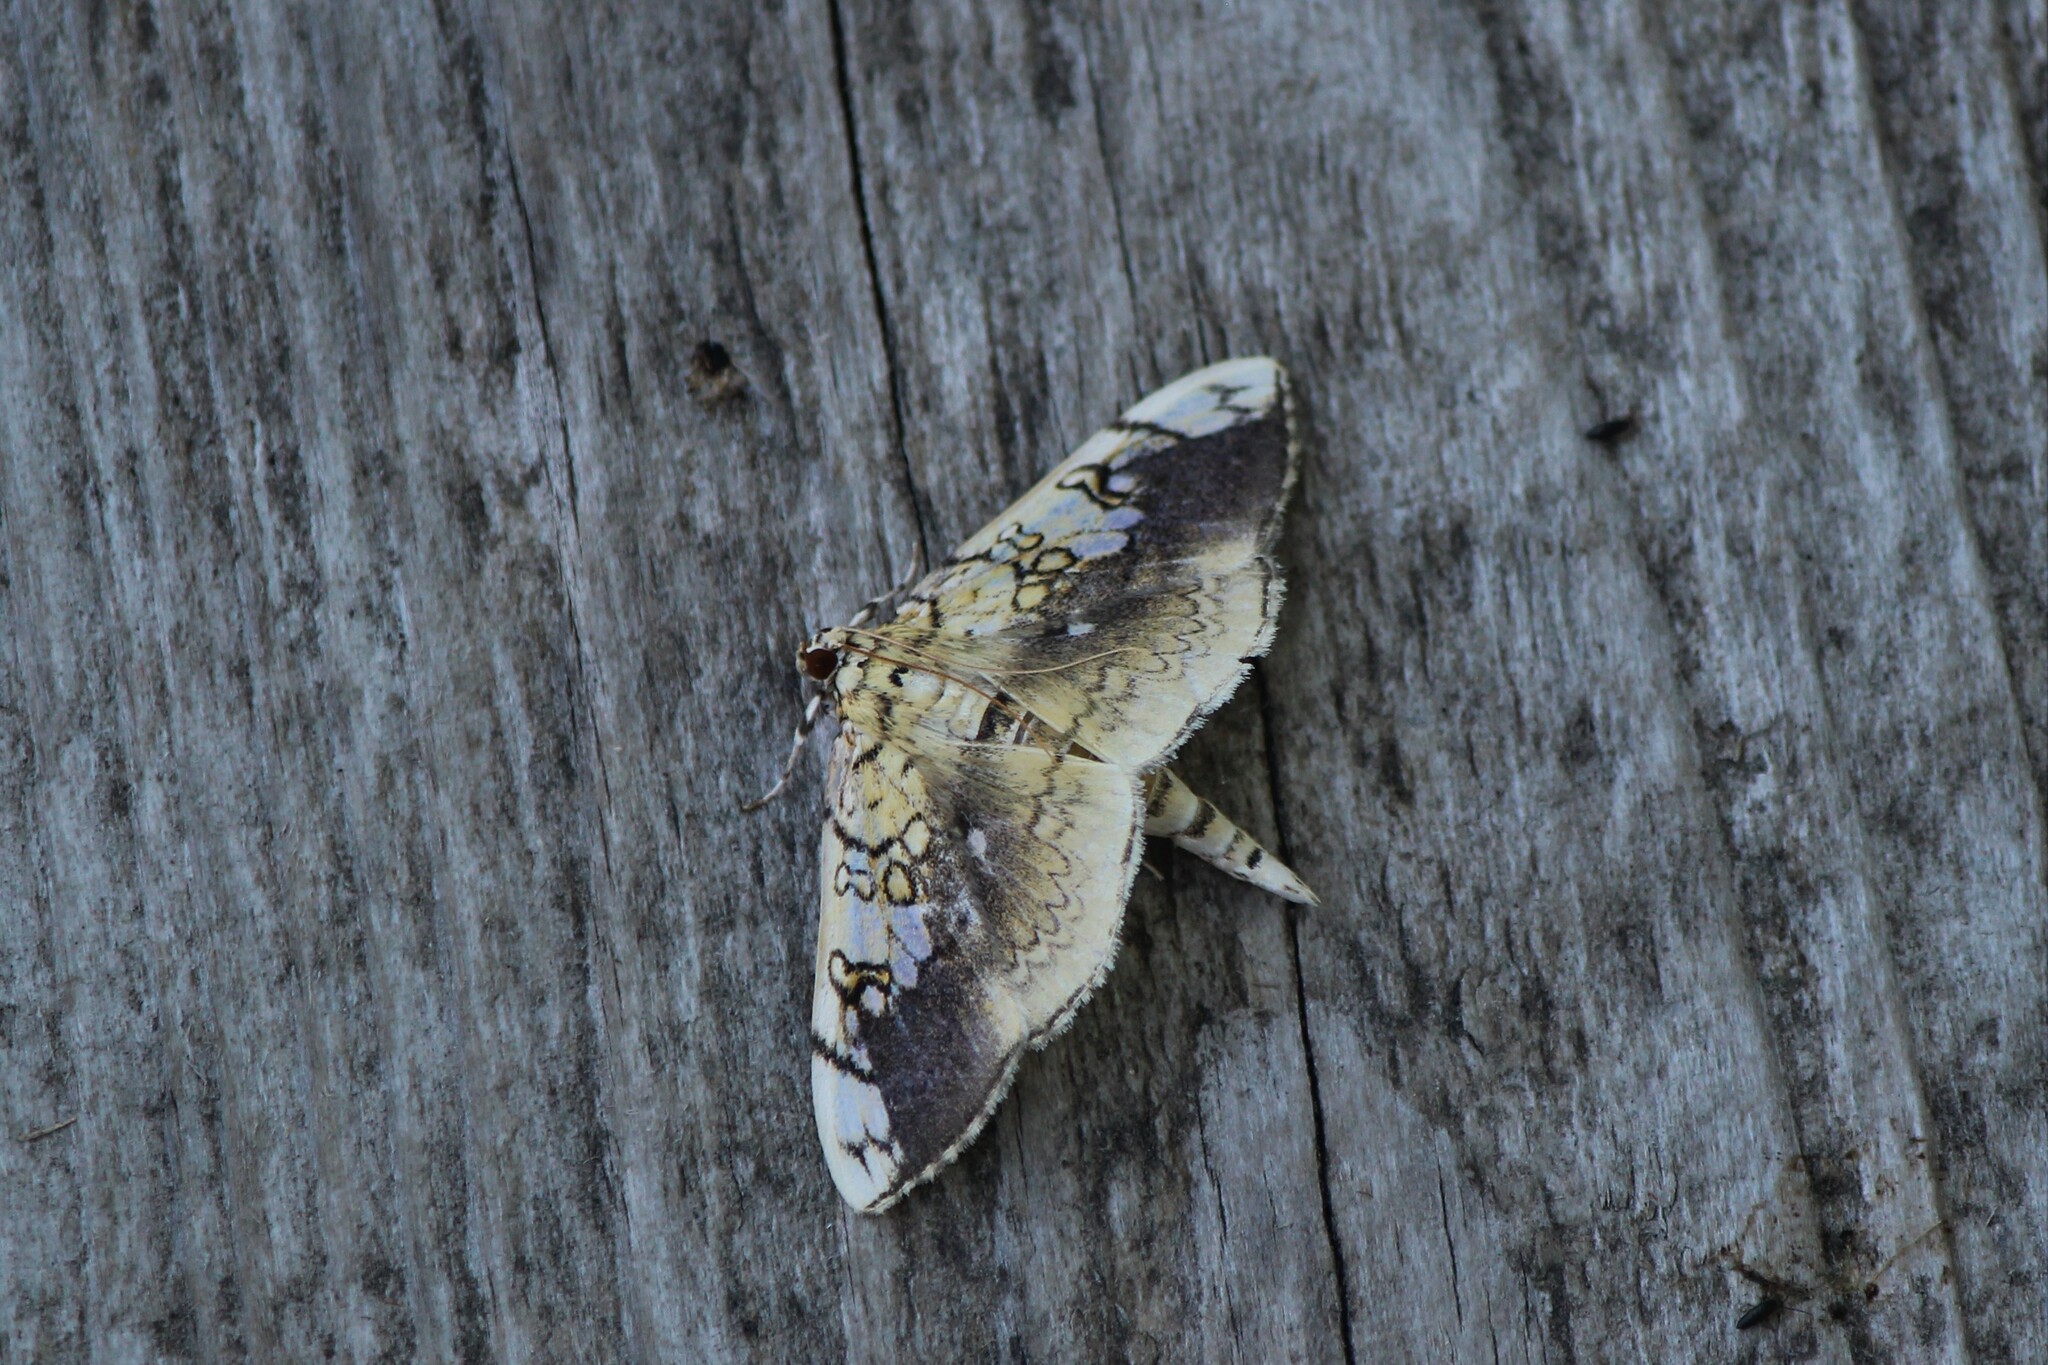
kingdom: Animalia
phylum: Arthropoda
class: Insecta
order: Lepidoptera
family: Crambidae
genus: Pantographa
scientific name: Pantographa limata
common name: Basswood leafroller moth
